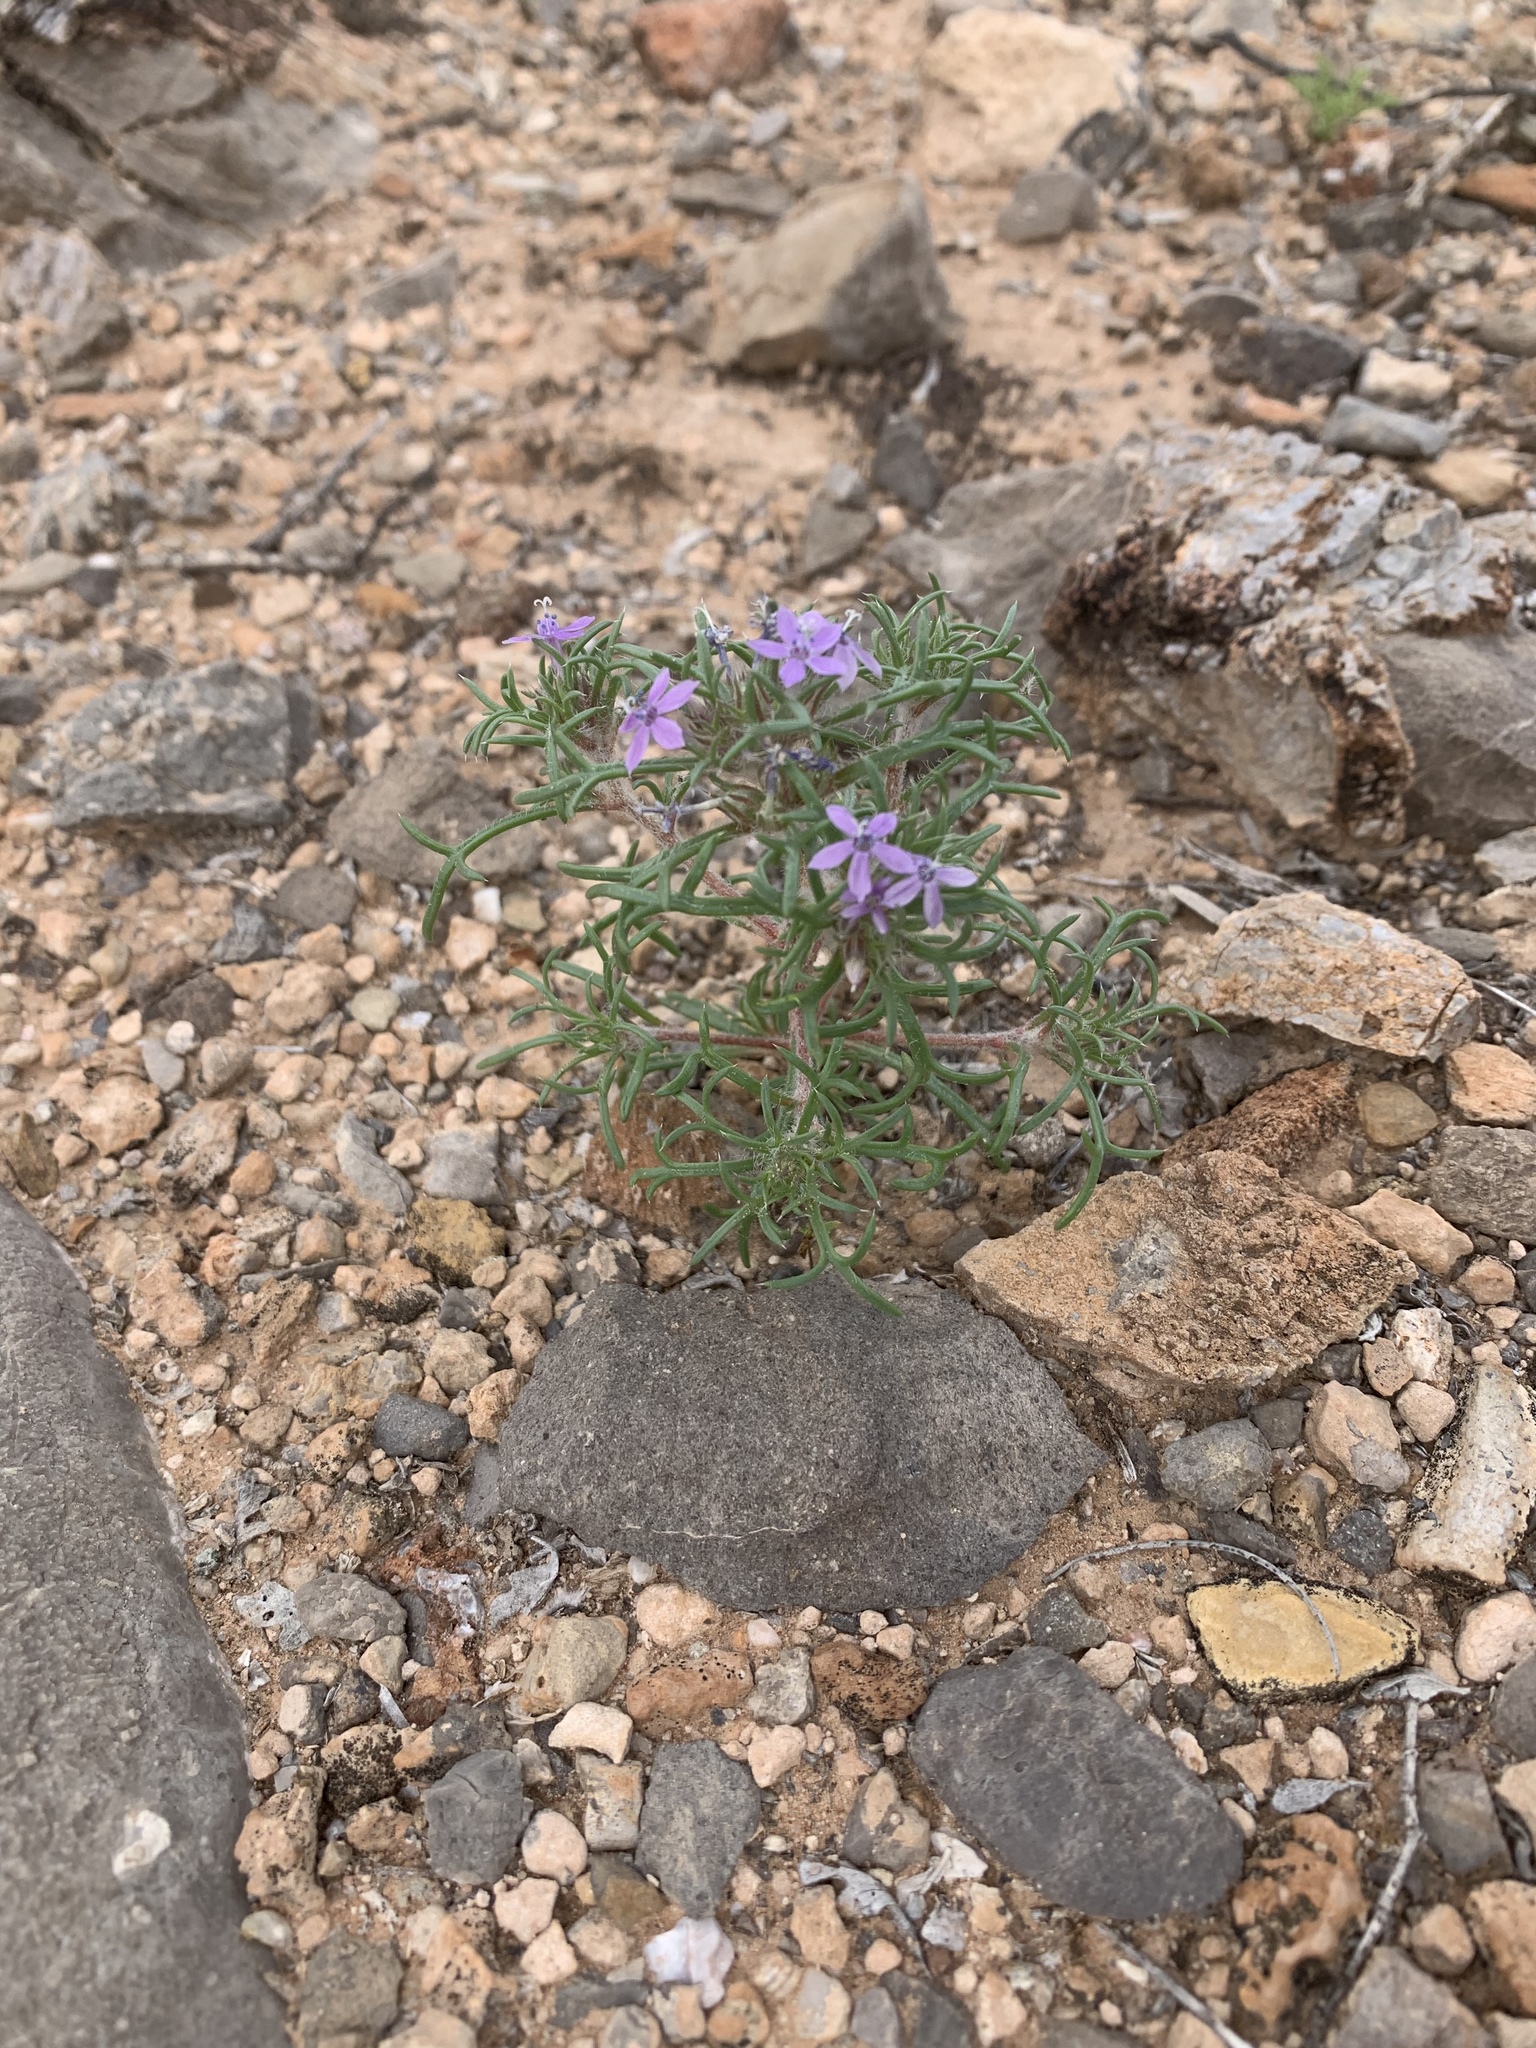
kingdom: Plantae
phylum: Tracheophyta
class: Magnoliopsida
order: Ericales
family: Polemoniaceae
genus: Ipomopsis
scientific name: Ipomopsis pumila
